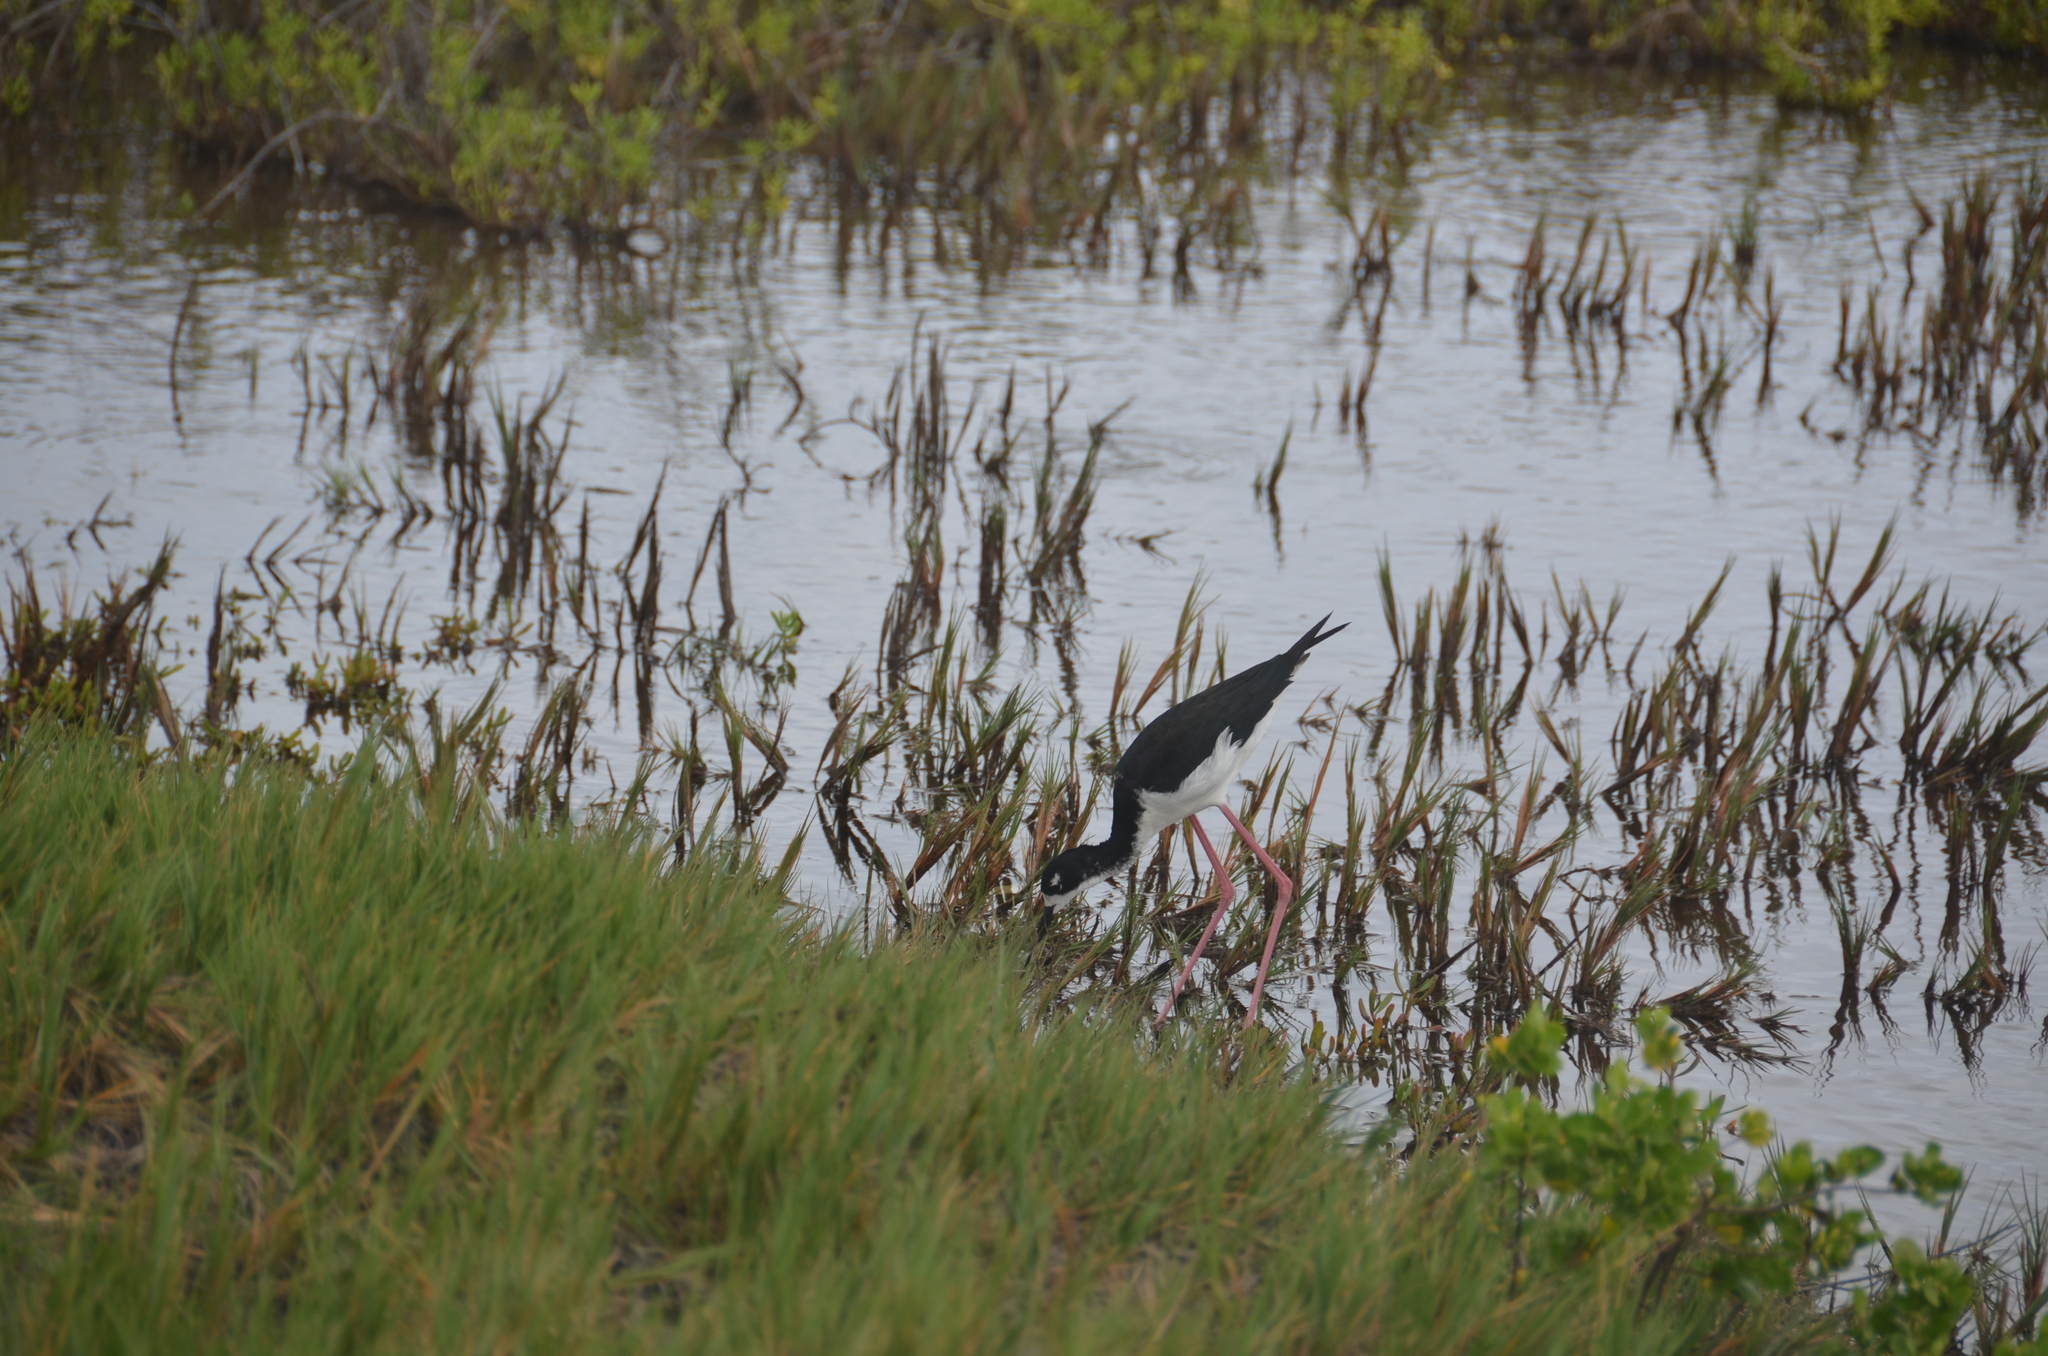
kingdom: Animalia
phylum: Chordata
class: Aves
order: Charadriiformes
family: Recurvirostridae
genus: Himantopus
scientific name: Himantopus mexicanus
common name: Black-necked stilt
